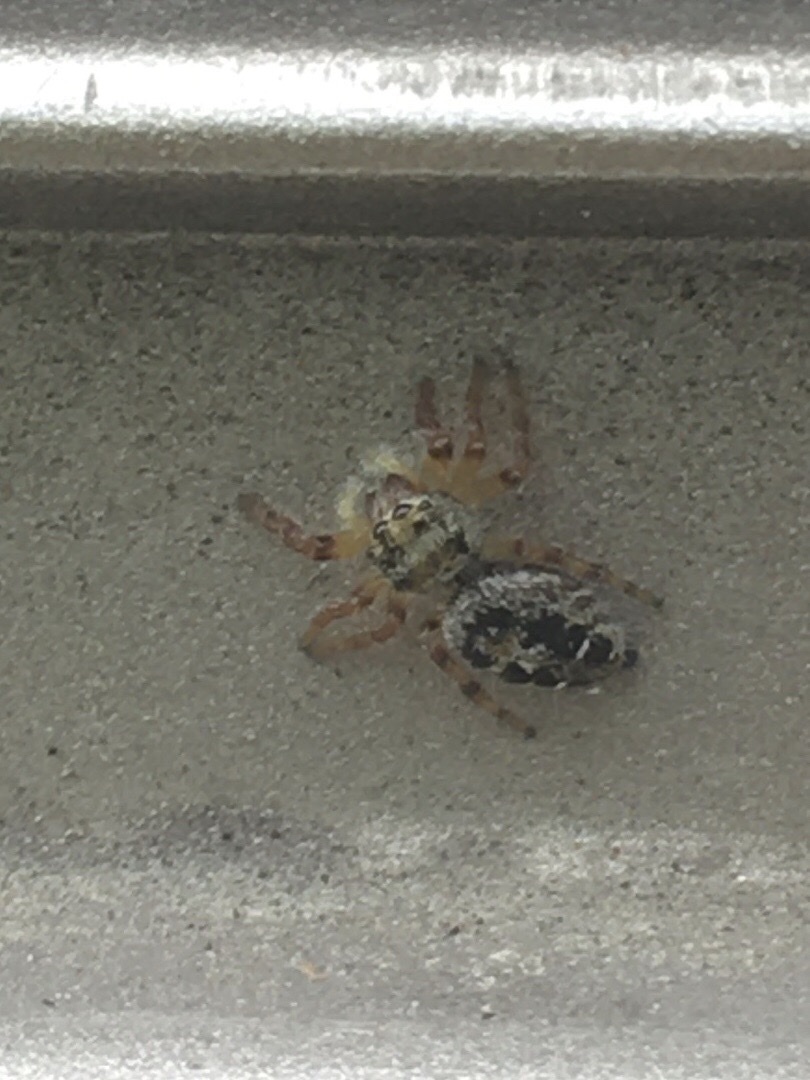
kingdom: Animalia
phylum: Arthropoda
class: Arachnida
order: Araneae
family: Salticidae
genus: Phidippus
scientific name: Phidippus princeps
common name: Grayish jumping spider
